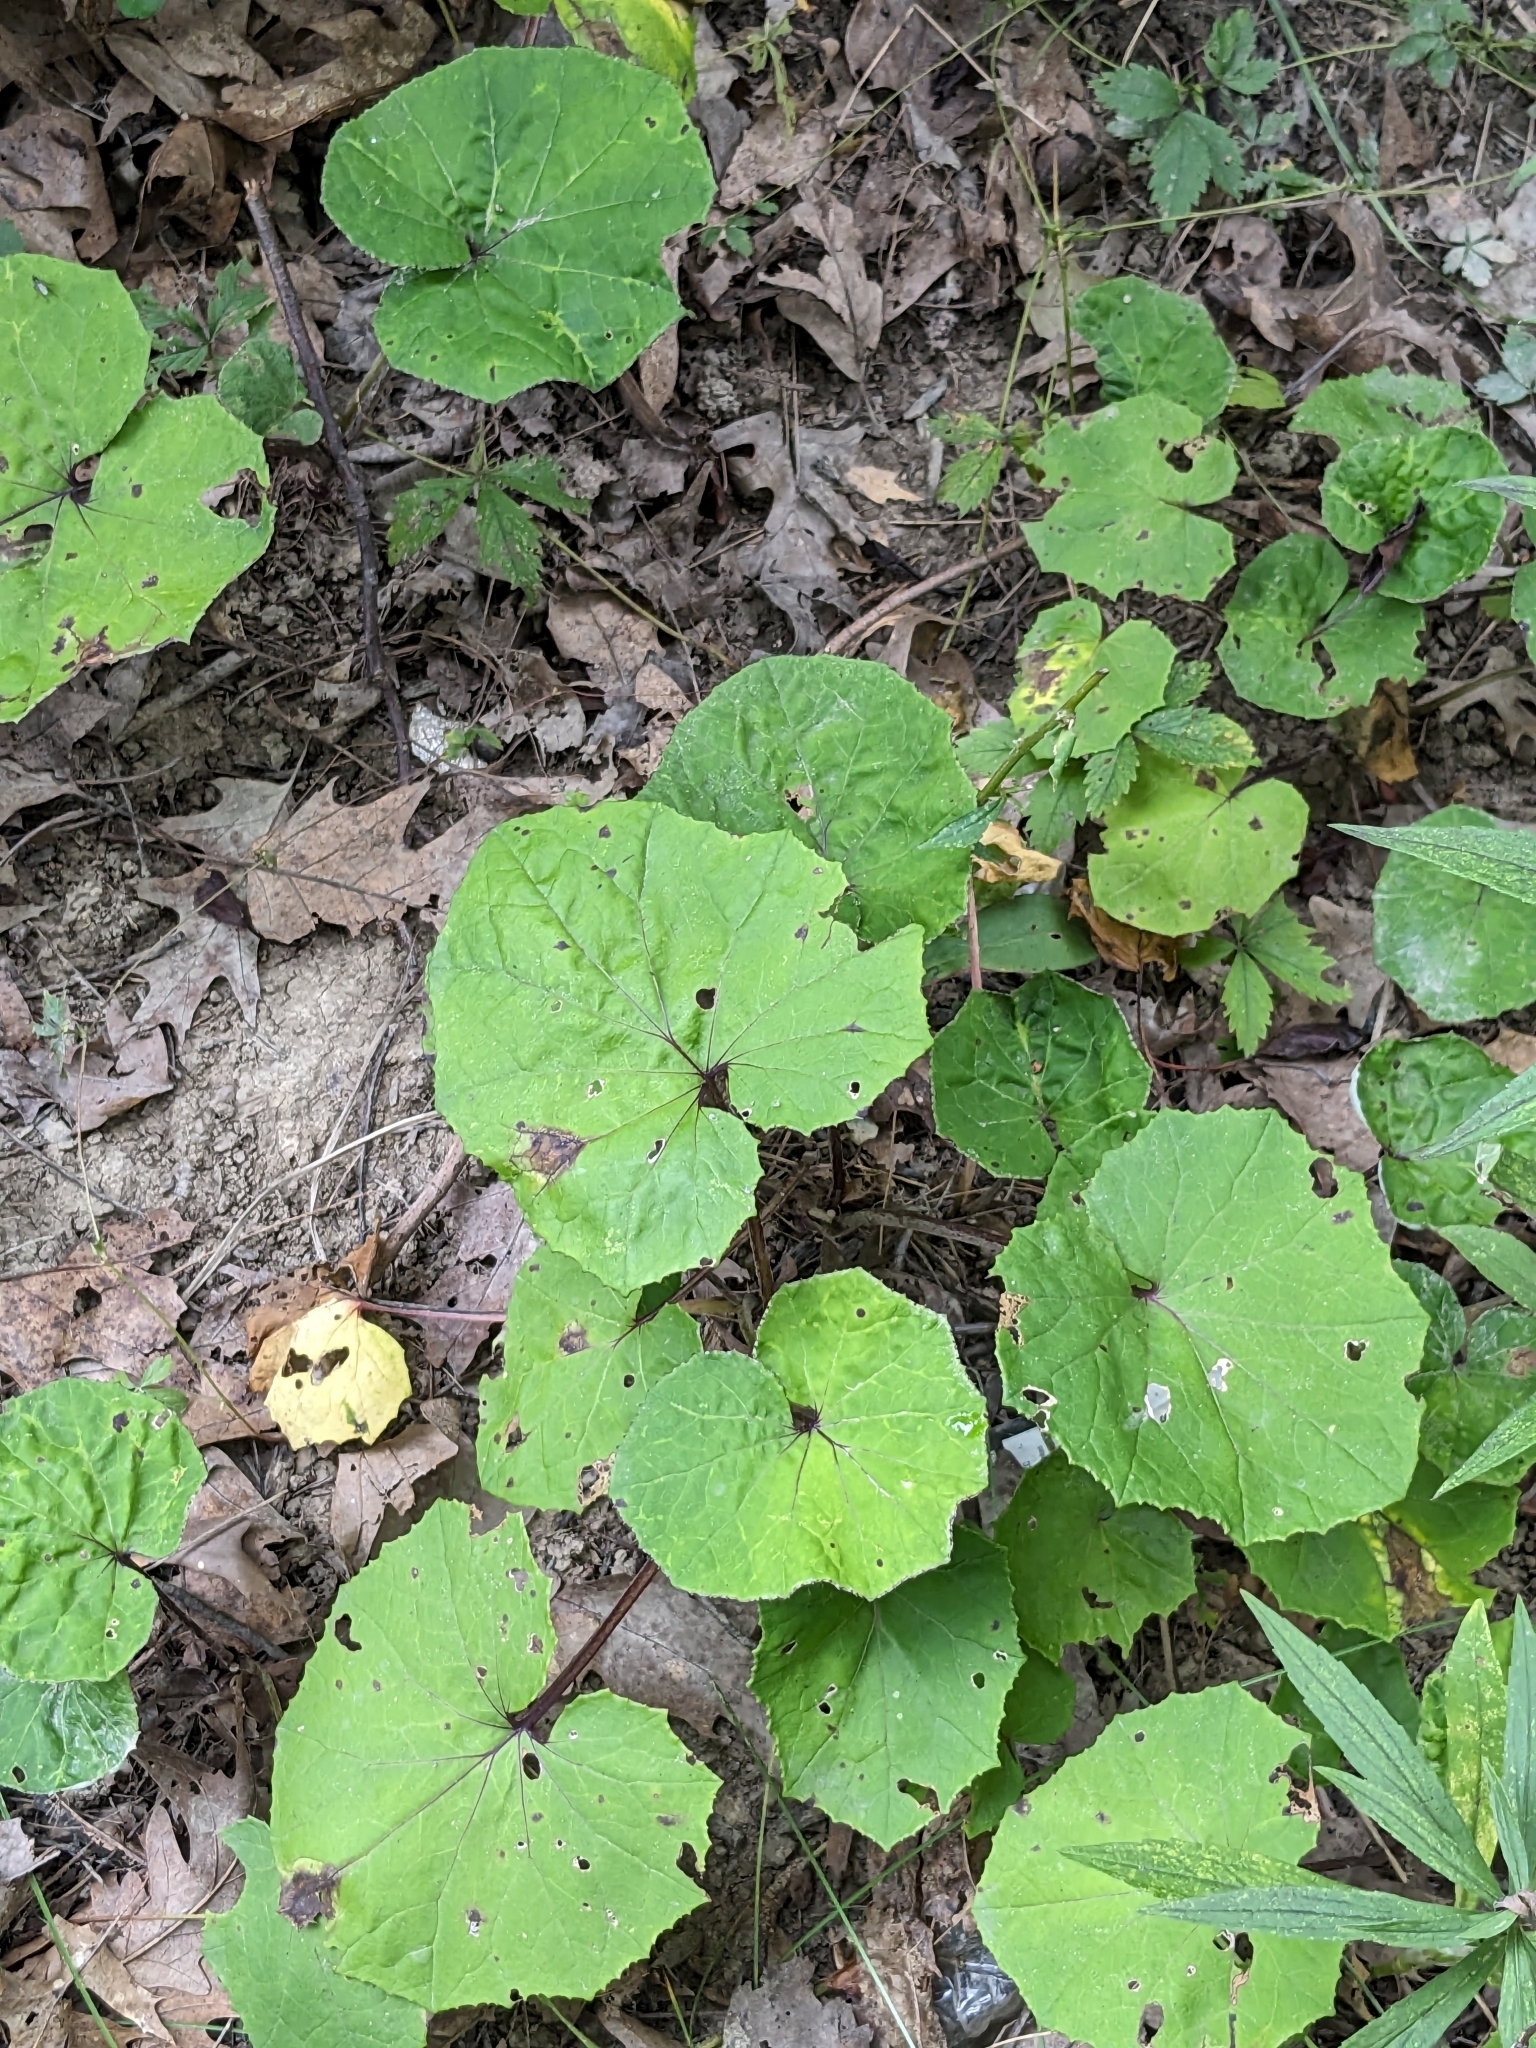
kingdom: Plantae
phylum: Tracheophyta
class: Magnoliopsida
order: Asterales
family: Asteraceae
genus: Tussilago
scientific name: Tussilago farfara
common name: Coltsfoot
